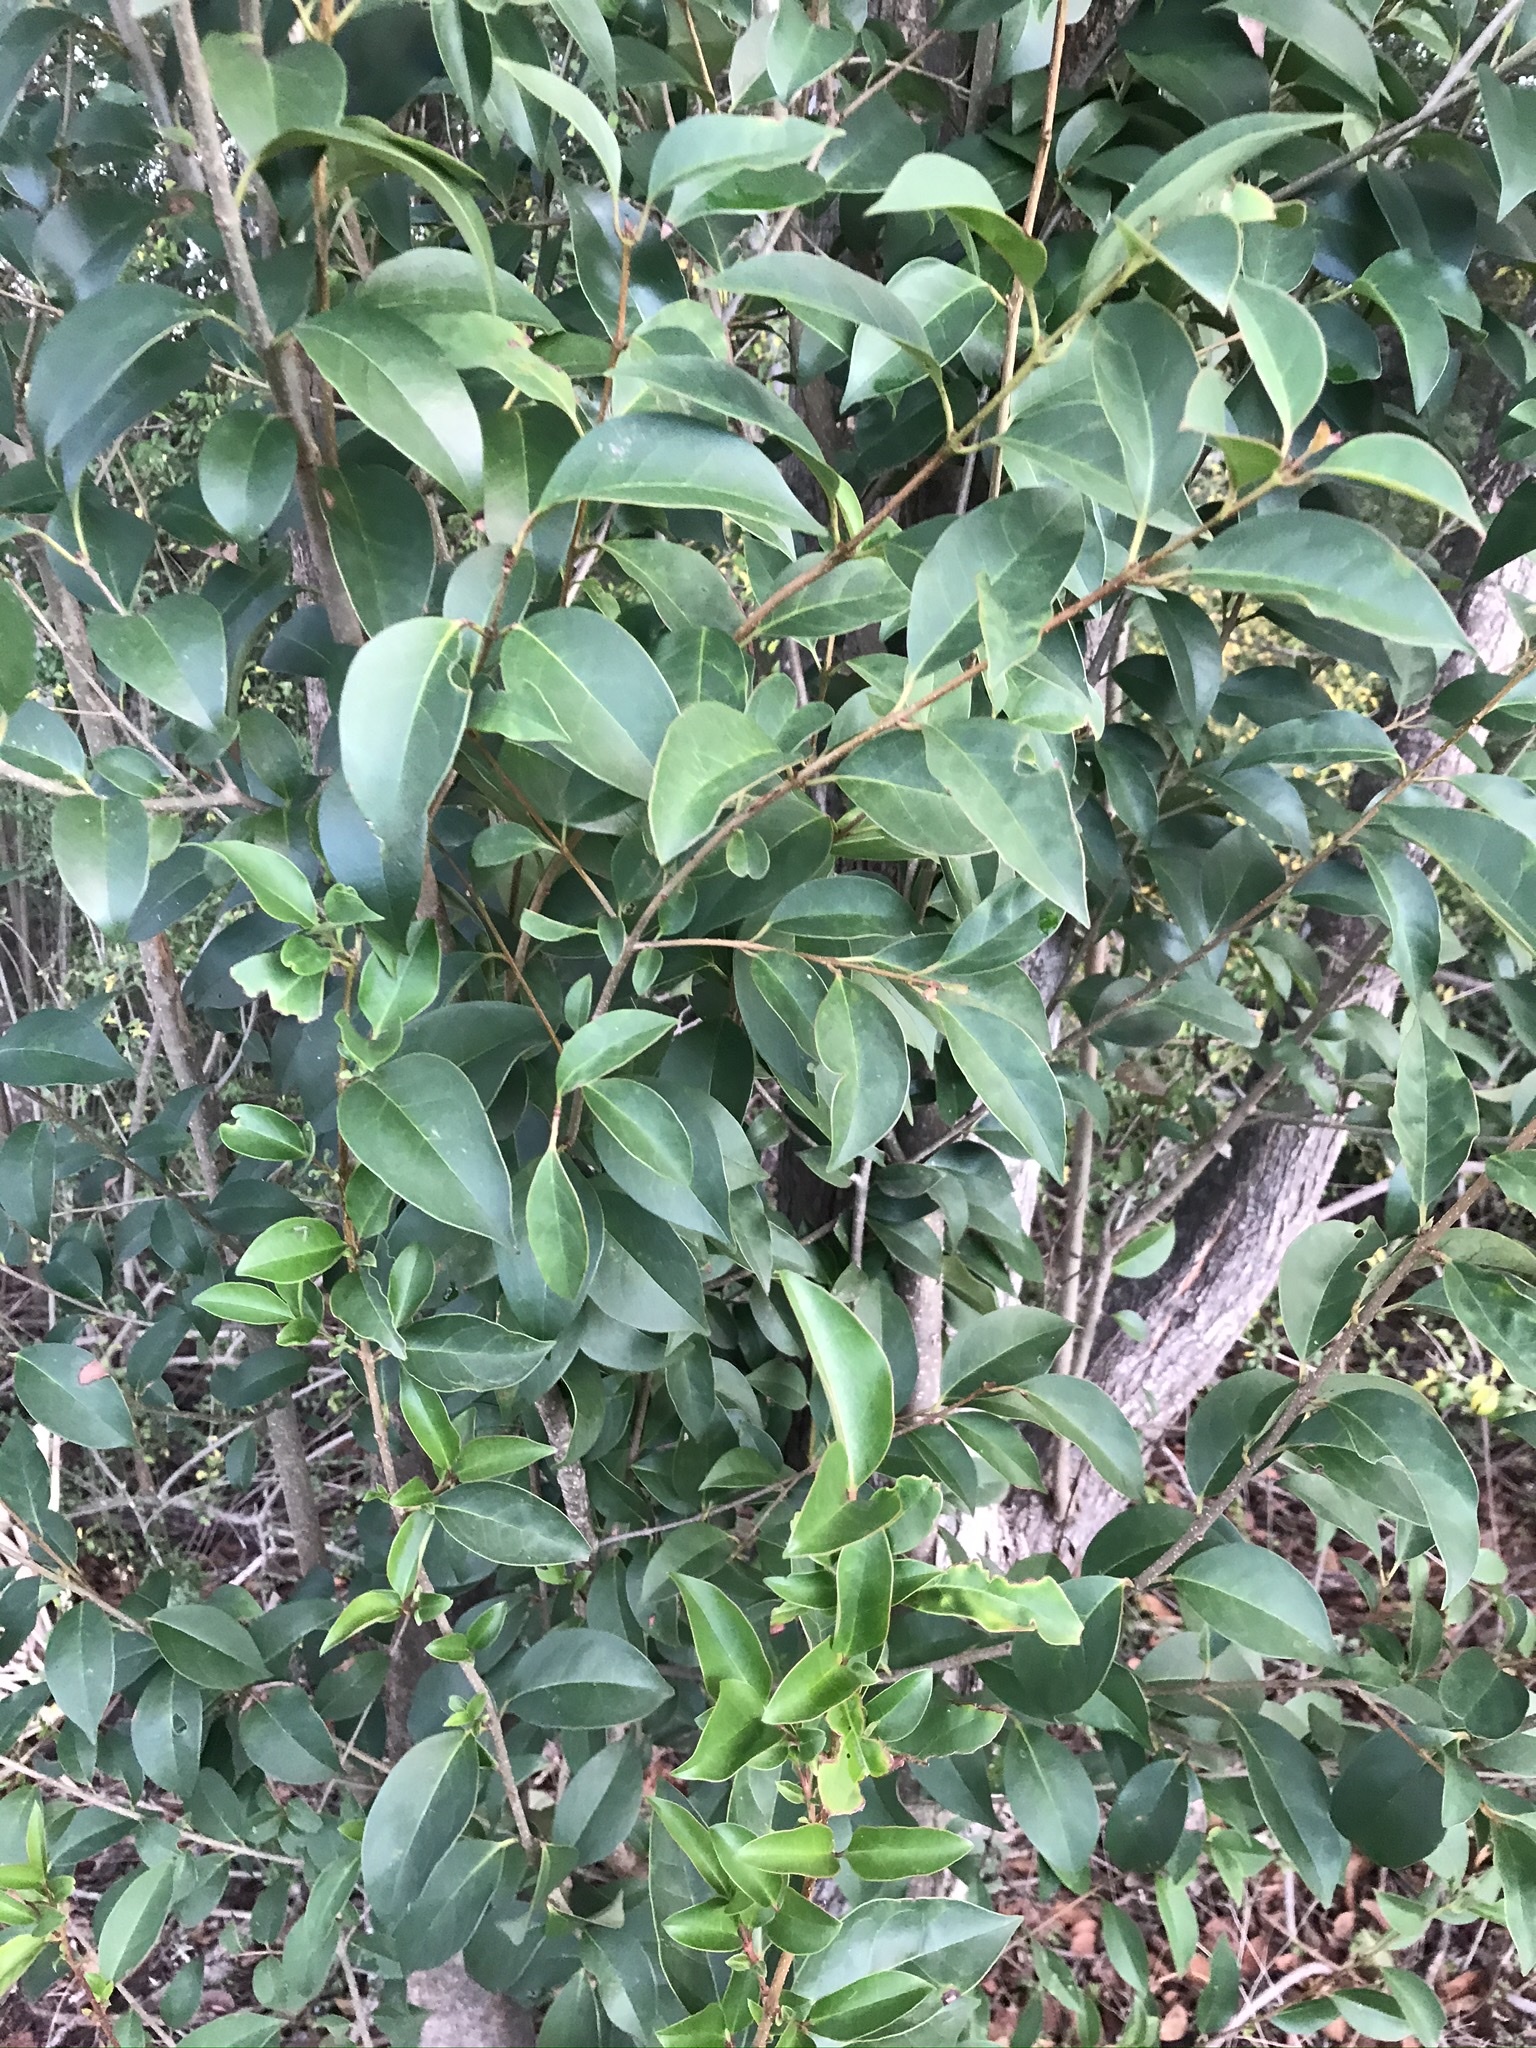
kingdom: Plantae
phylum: Tracheophyta
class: Magnoliopsida
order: Lamiales
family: Oleaceae
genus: Ligustrum
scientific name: Ligustrum lucidum
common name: Glossy privet
